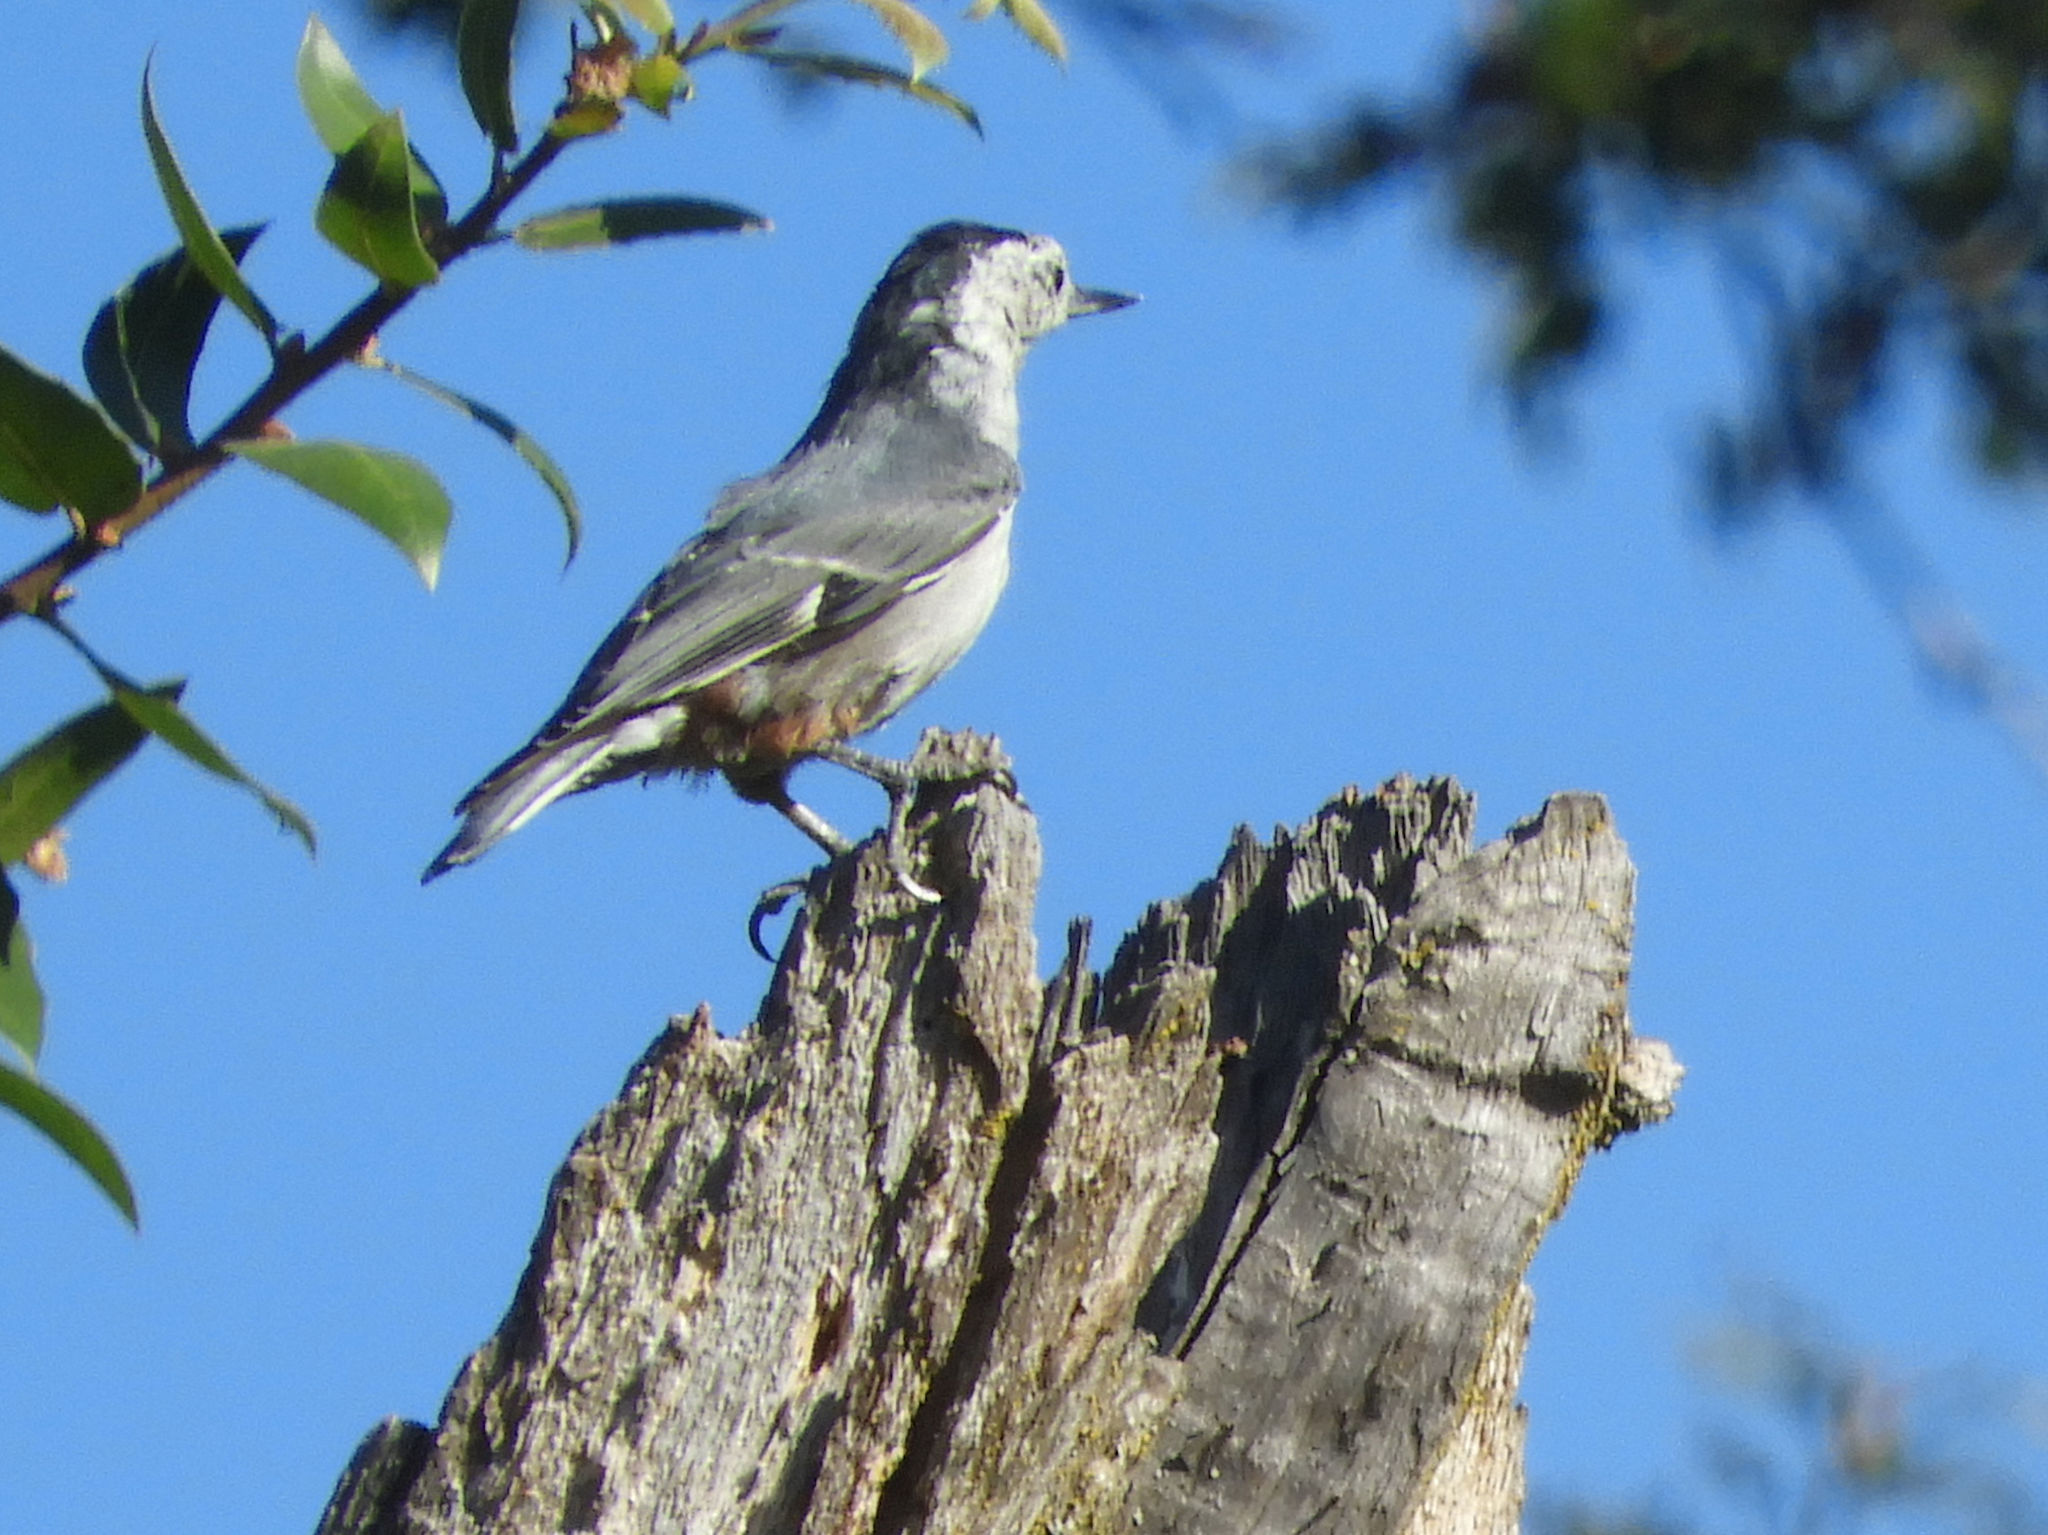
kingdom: Animalia
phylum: Chordata
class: Aves
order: Passeriformes
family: Sittidae
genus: Sitta
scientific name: Sitta carolinensis
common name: White-breasted nuthatch
